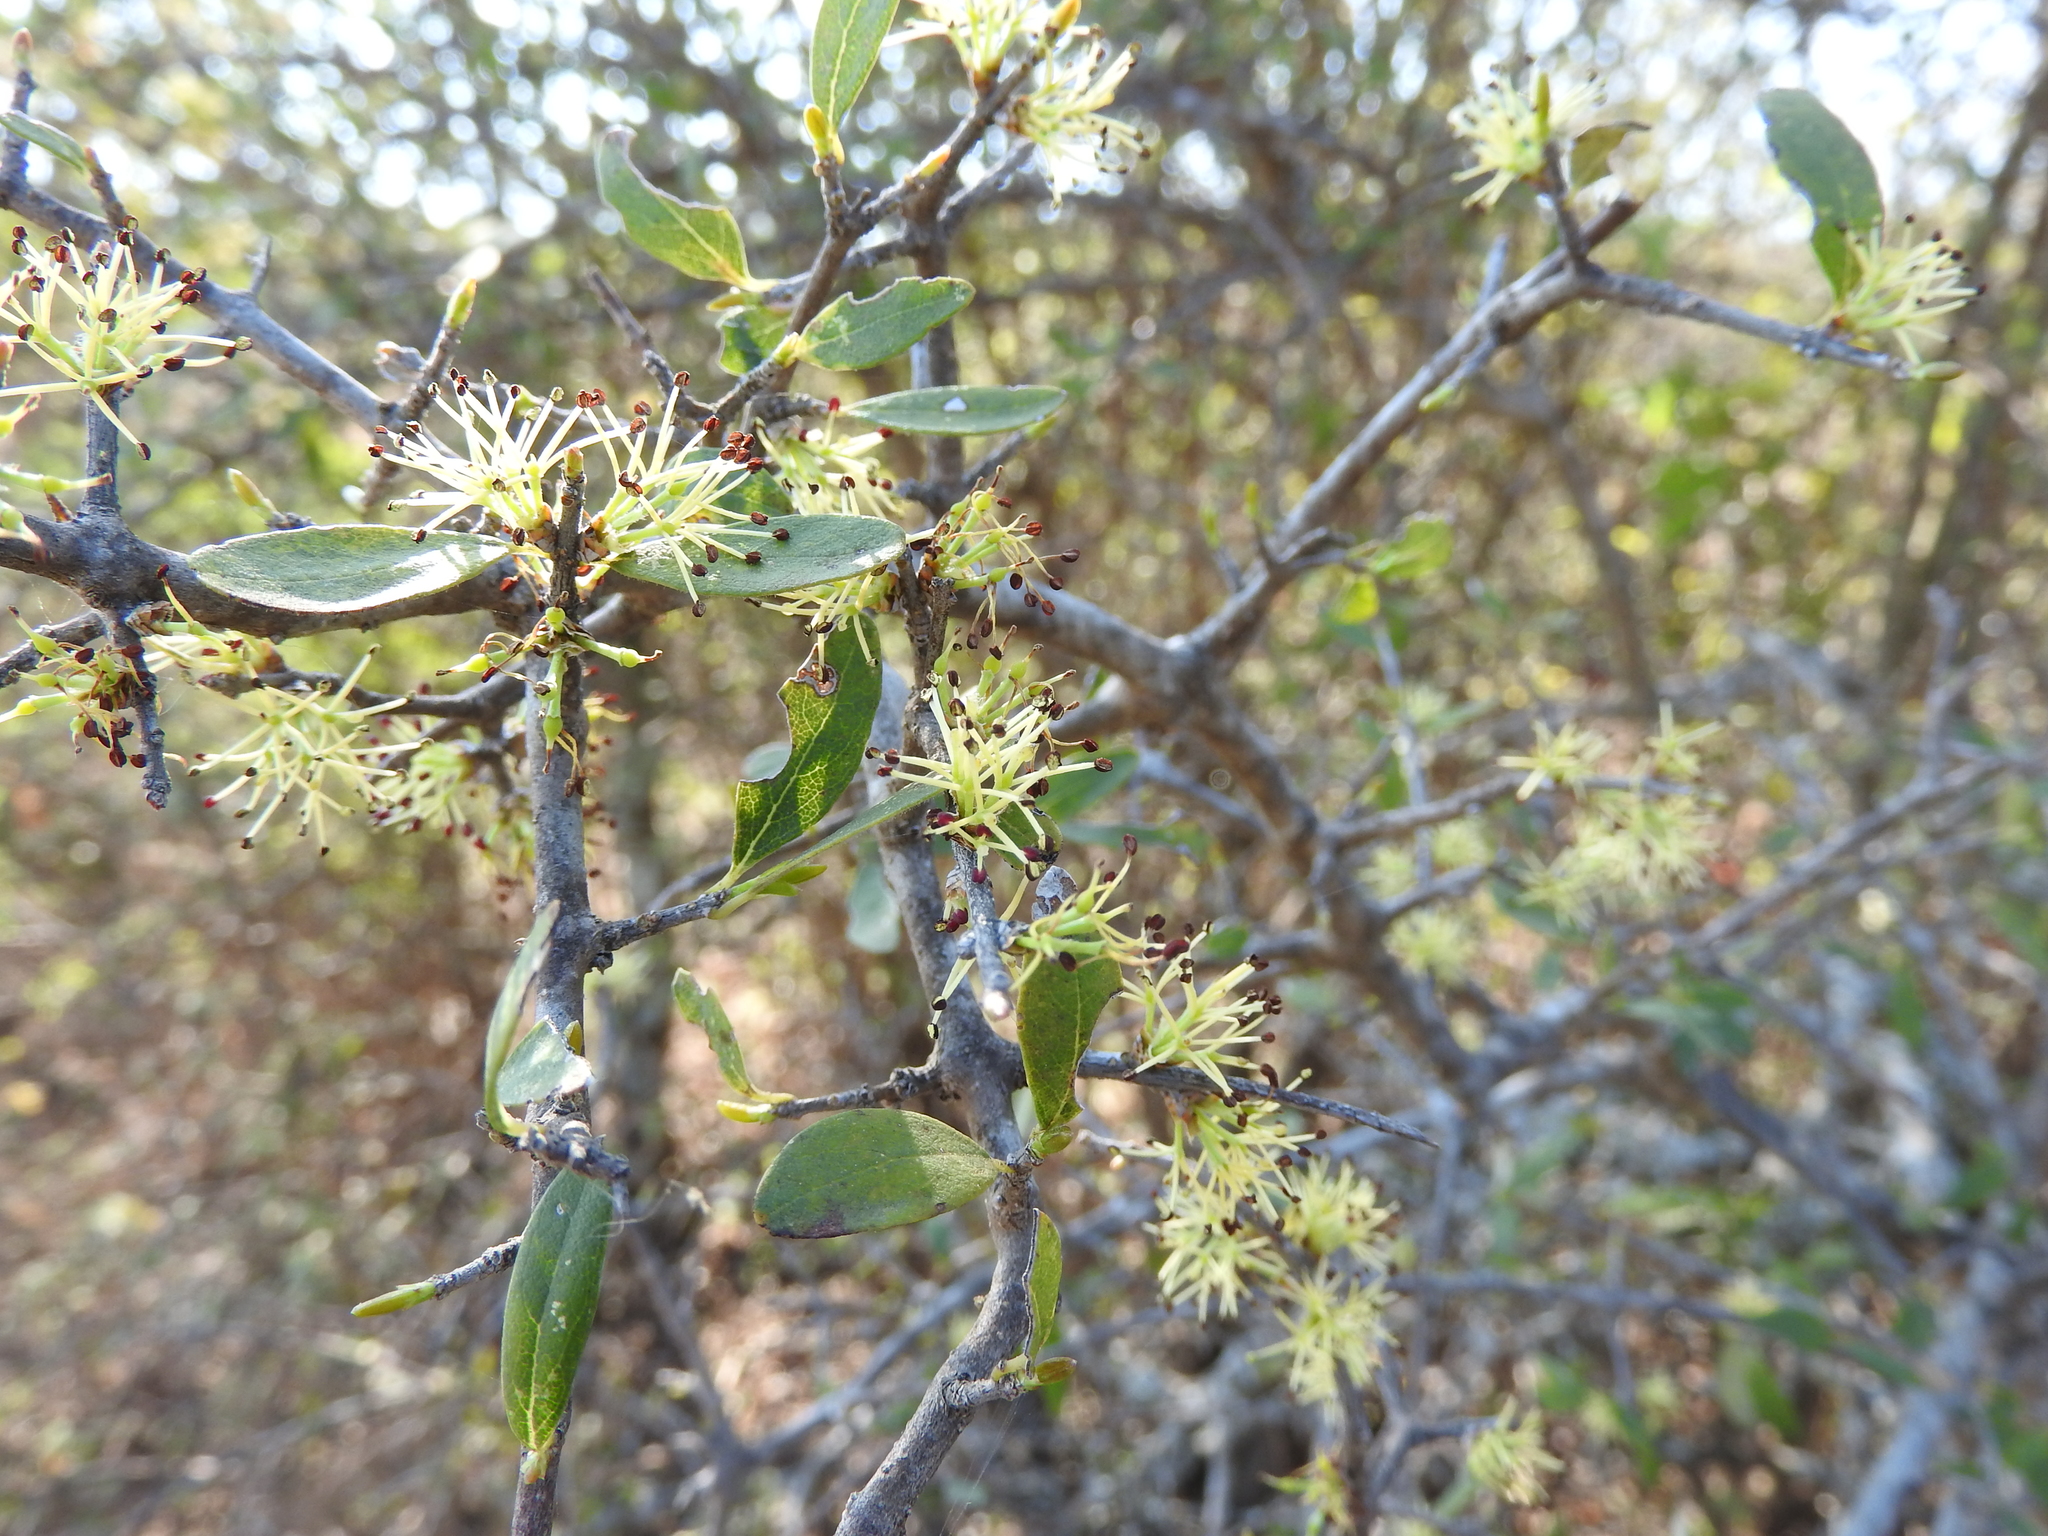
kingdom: Plantae
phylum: Tracheophyta
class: Magnoliopsida
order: Lamiales
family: Oleaceae
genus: Forestiera
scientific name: Forestiera phillyreoides
